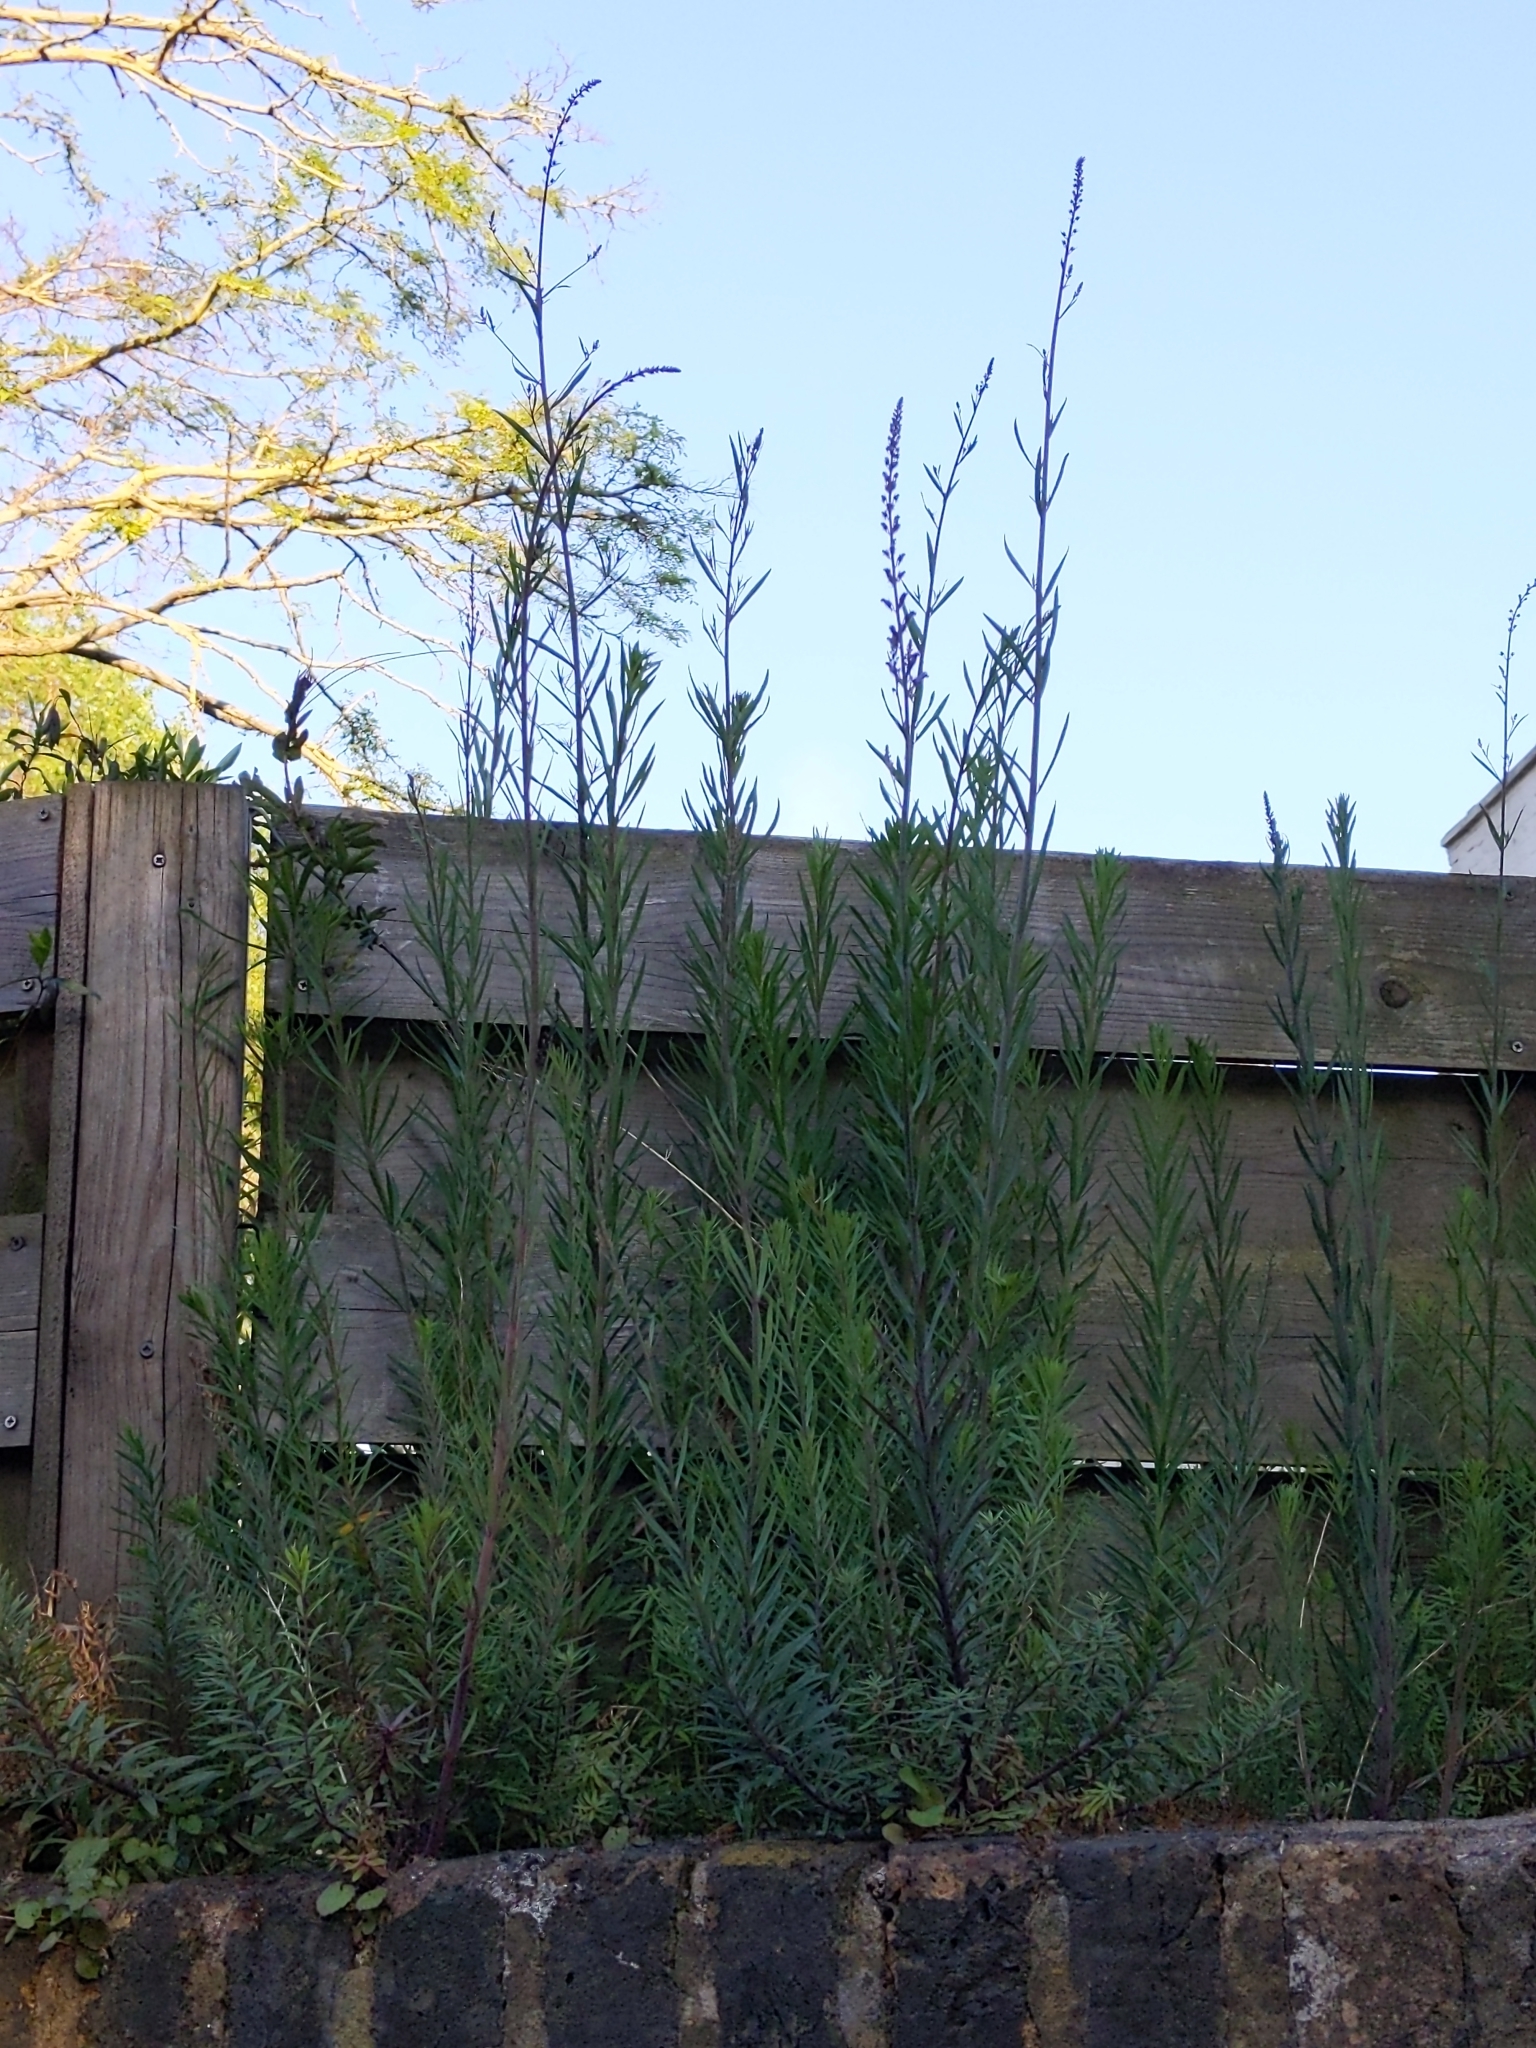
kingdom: Plantae
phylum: Tracheophyta
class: Magnoliopsida
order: Lamiales
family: Plantaginaceae
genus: Linaria
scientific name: Linaria purpurea
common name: Purple toadflax
